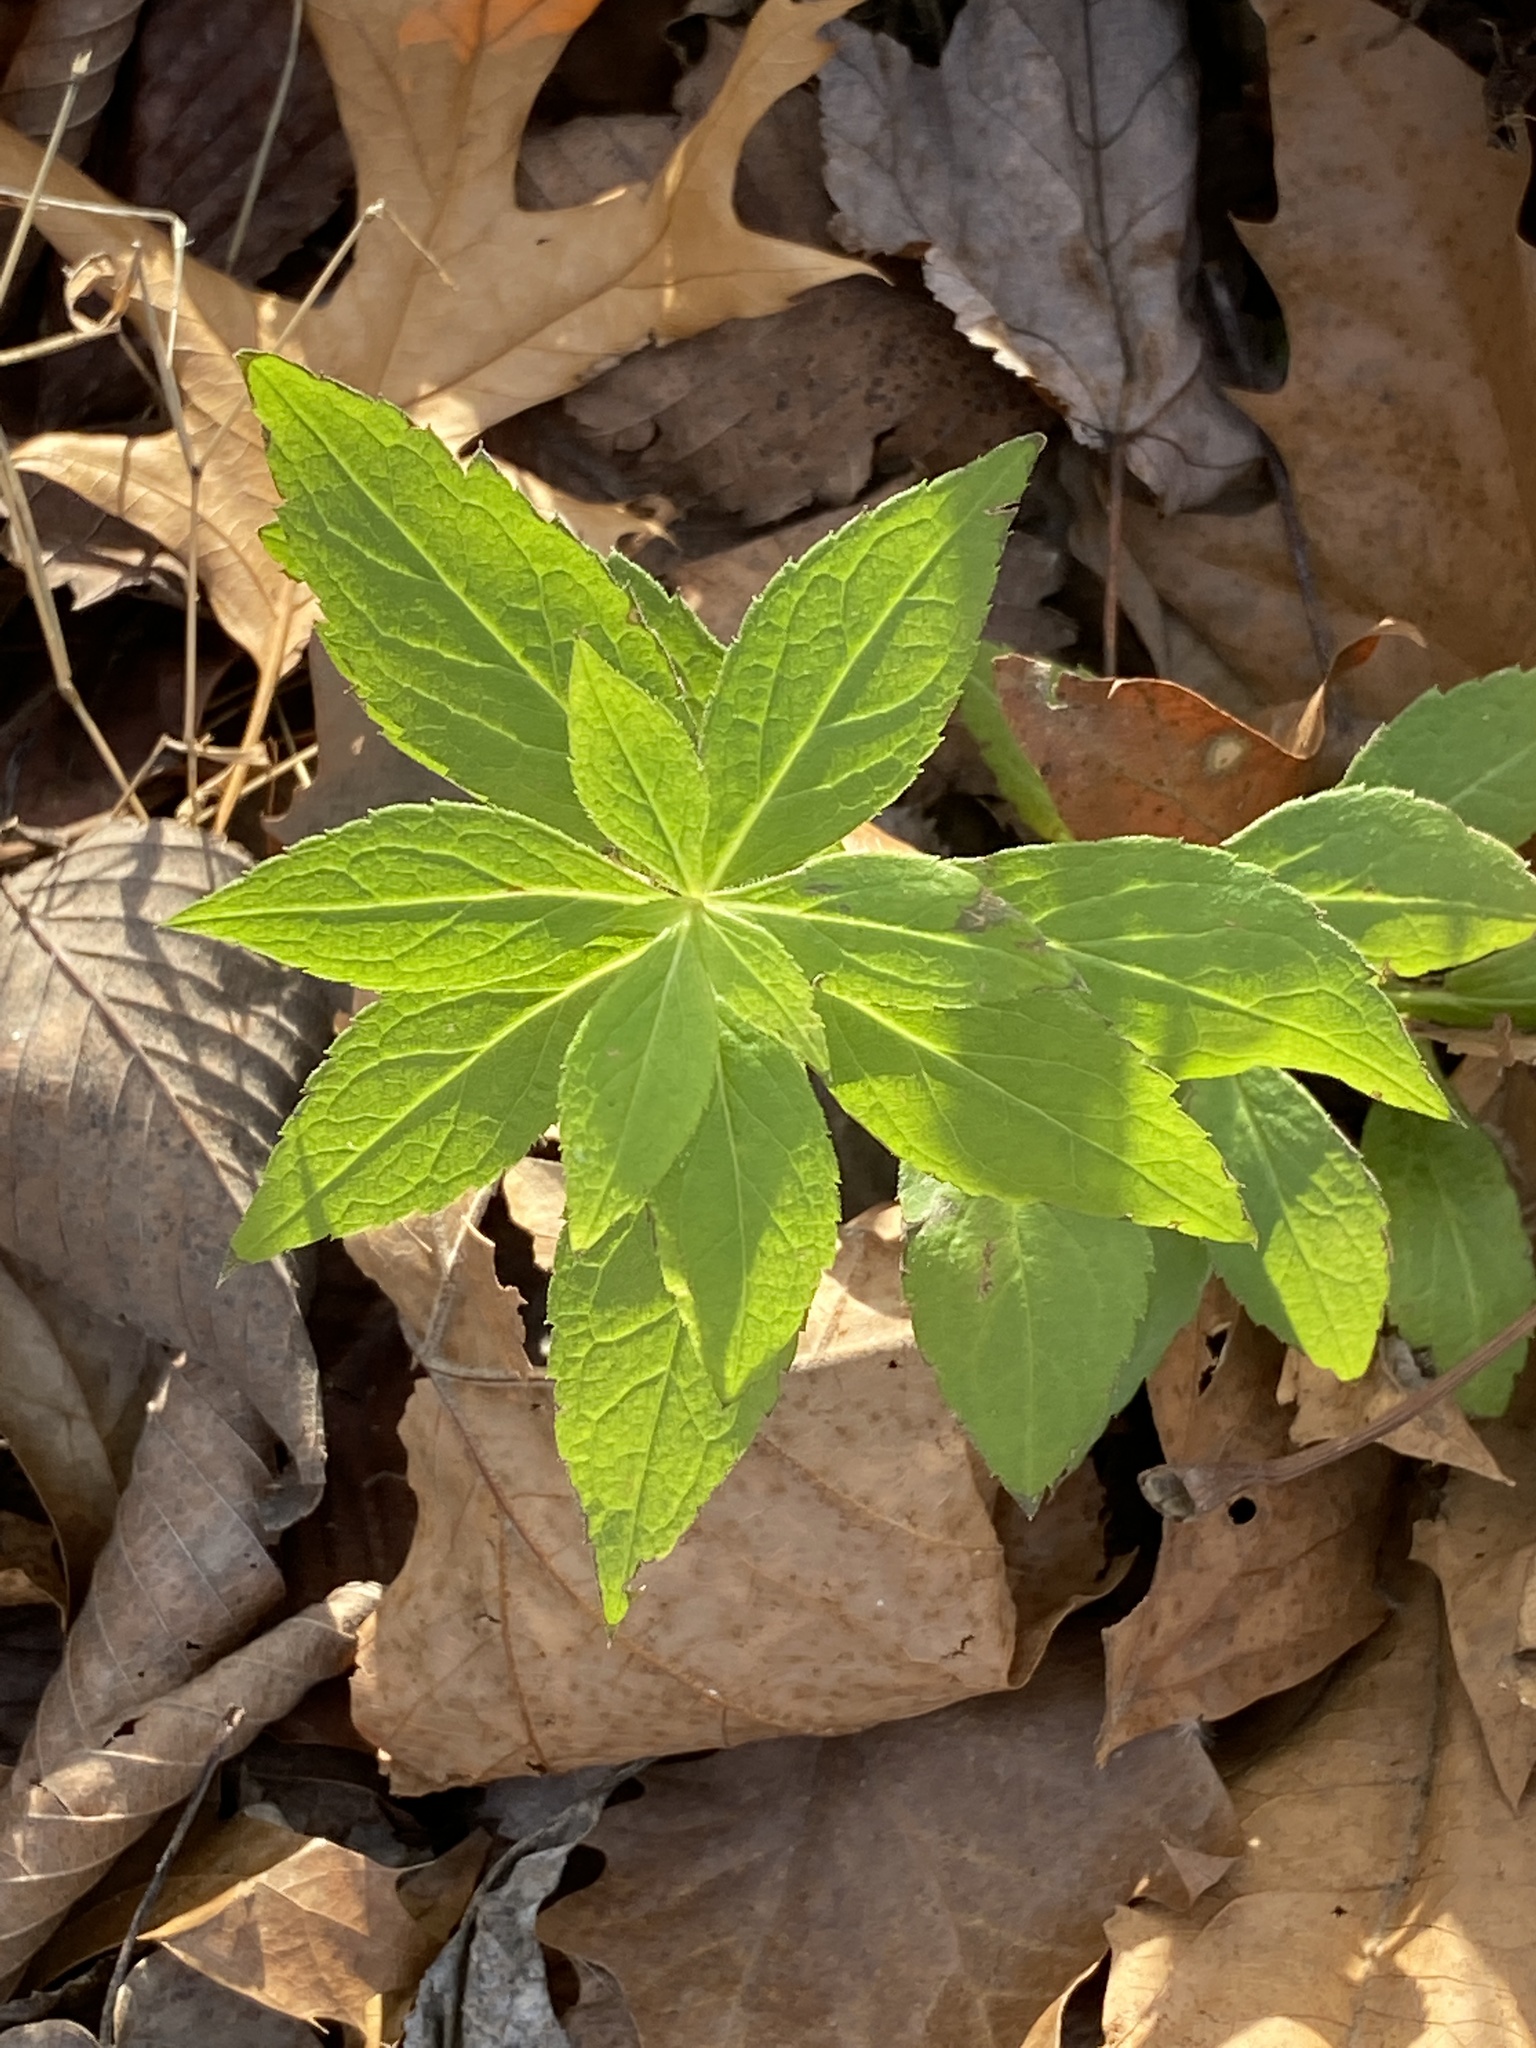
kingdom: Plantae
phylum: Tracheophyta
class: Magnoliopsida
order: Asterales
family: Asteraceae
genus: Solidago
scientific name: Solidago rugosa
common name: Rough-stemmed goldenrod
